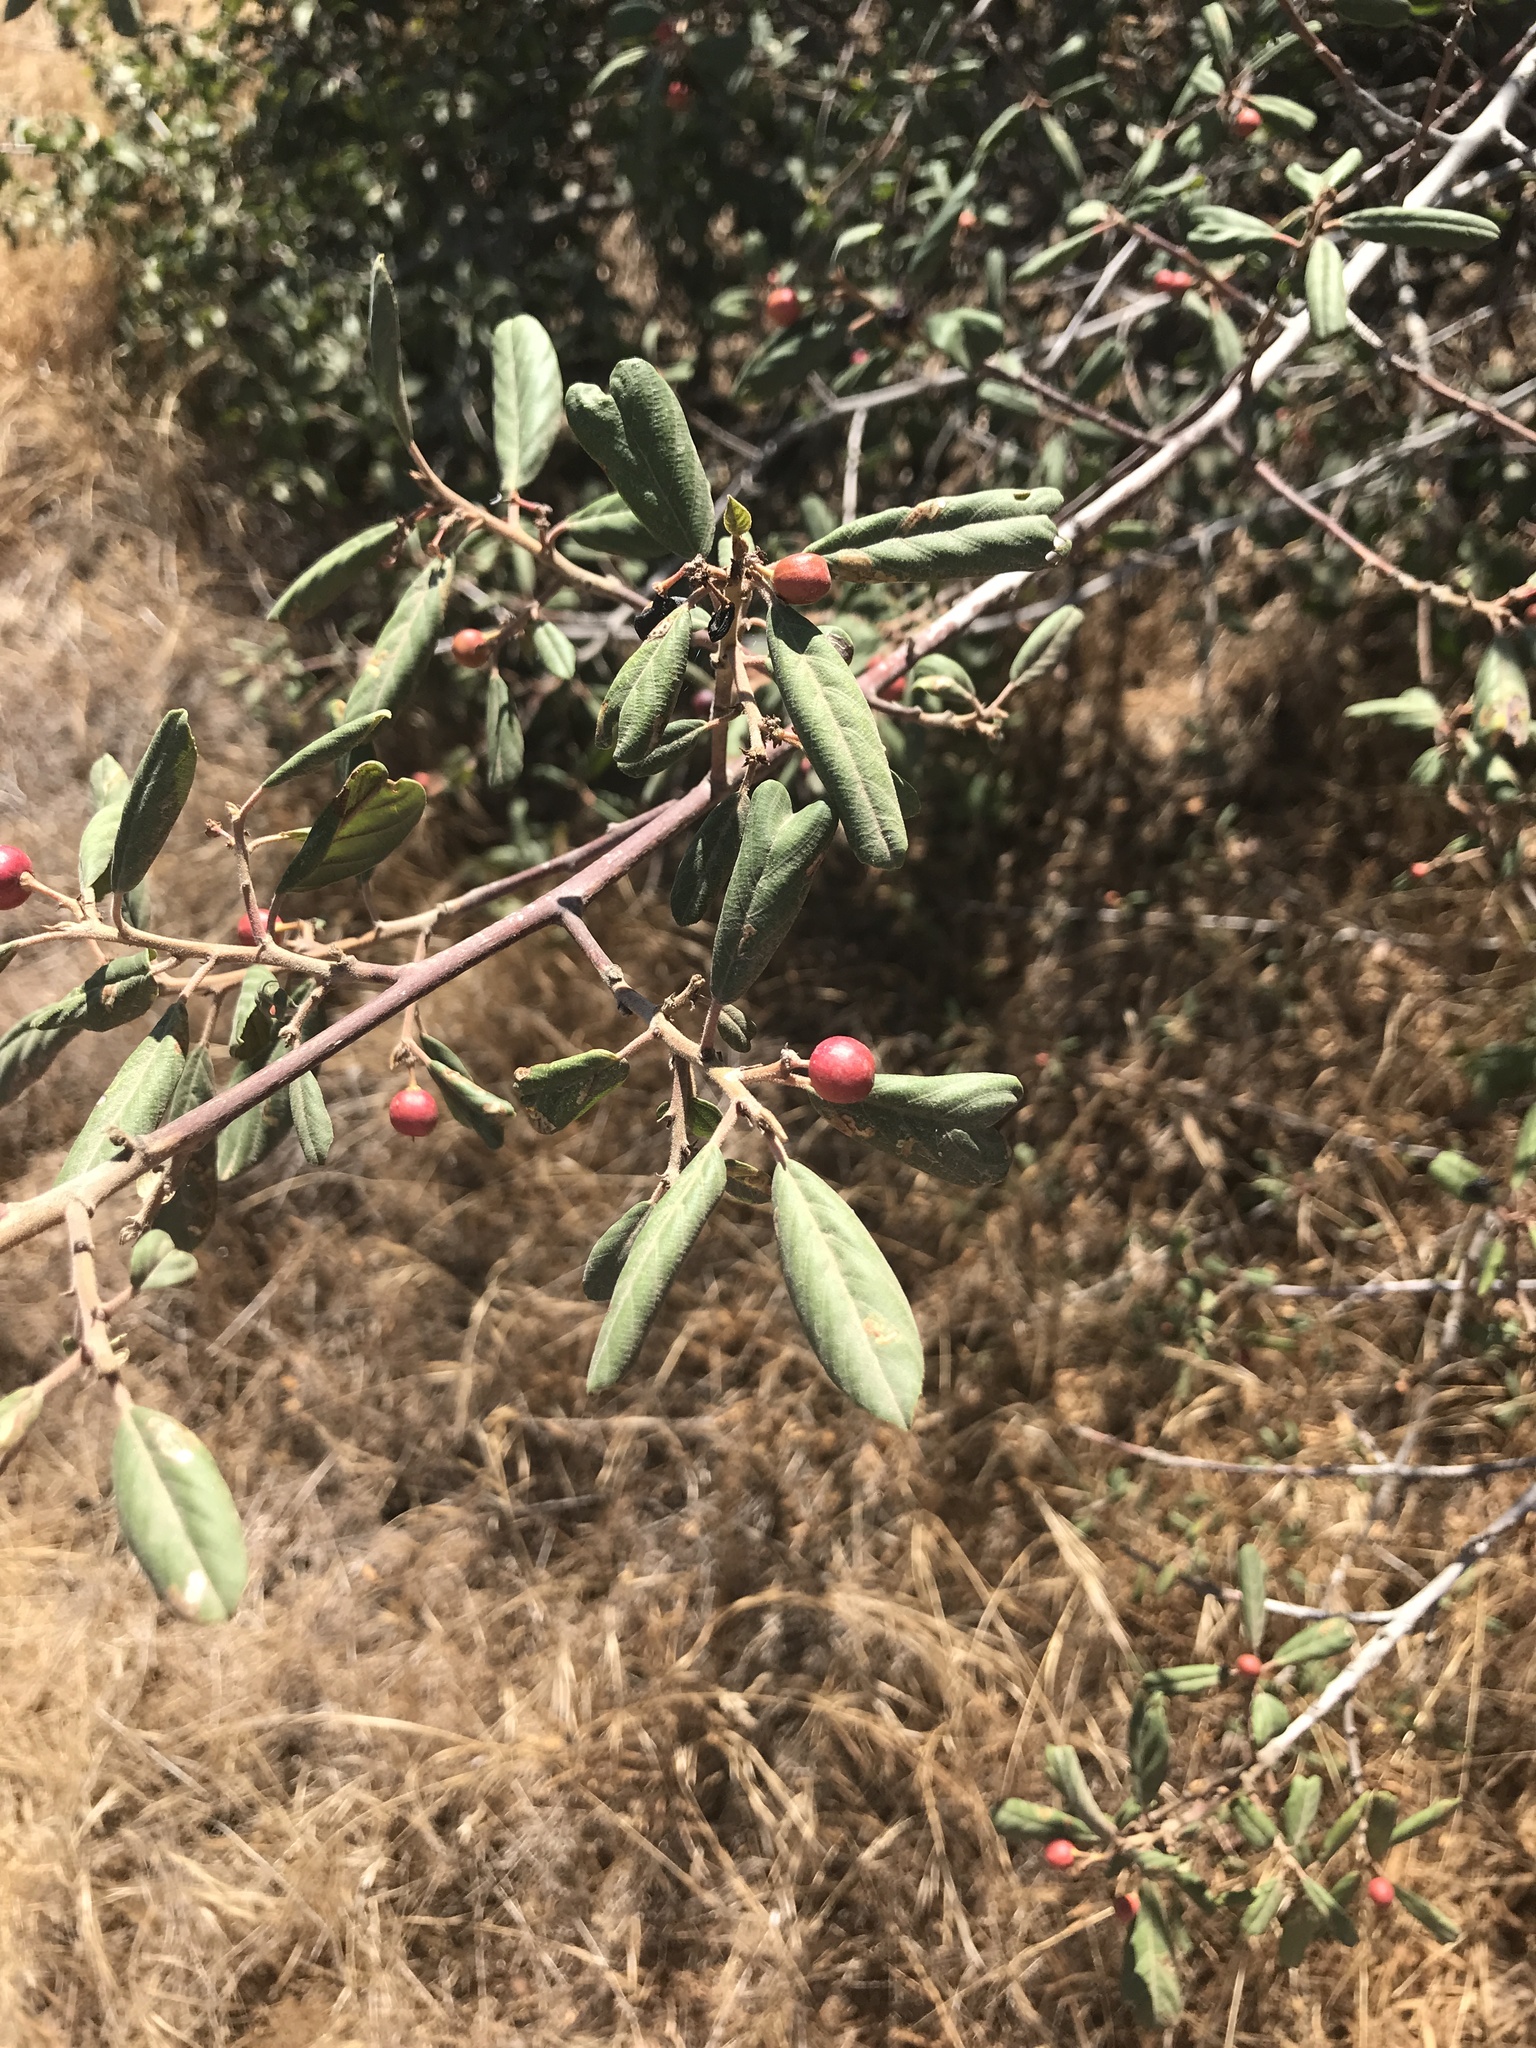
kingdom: Plantae
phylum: Tracheophyta
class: Magnoliopsida
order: Rosales
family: Rhamnaceae
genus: Frangula
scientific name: Frangula californica
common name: California buckthorn
